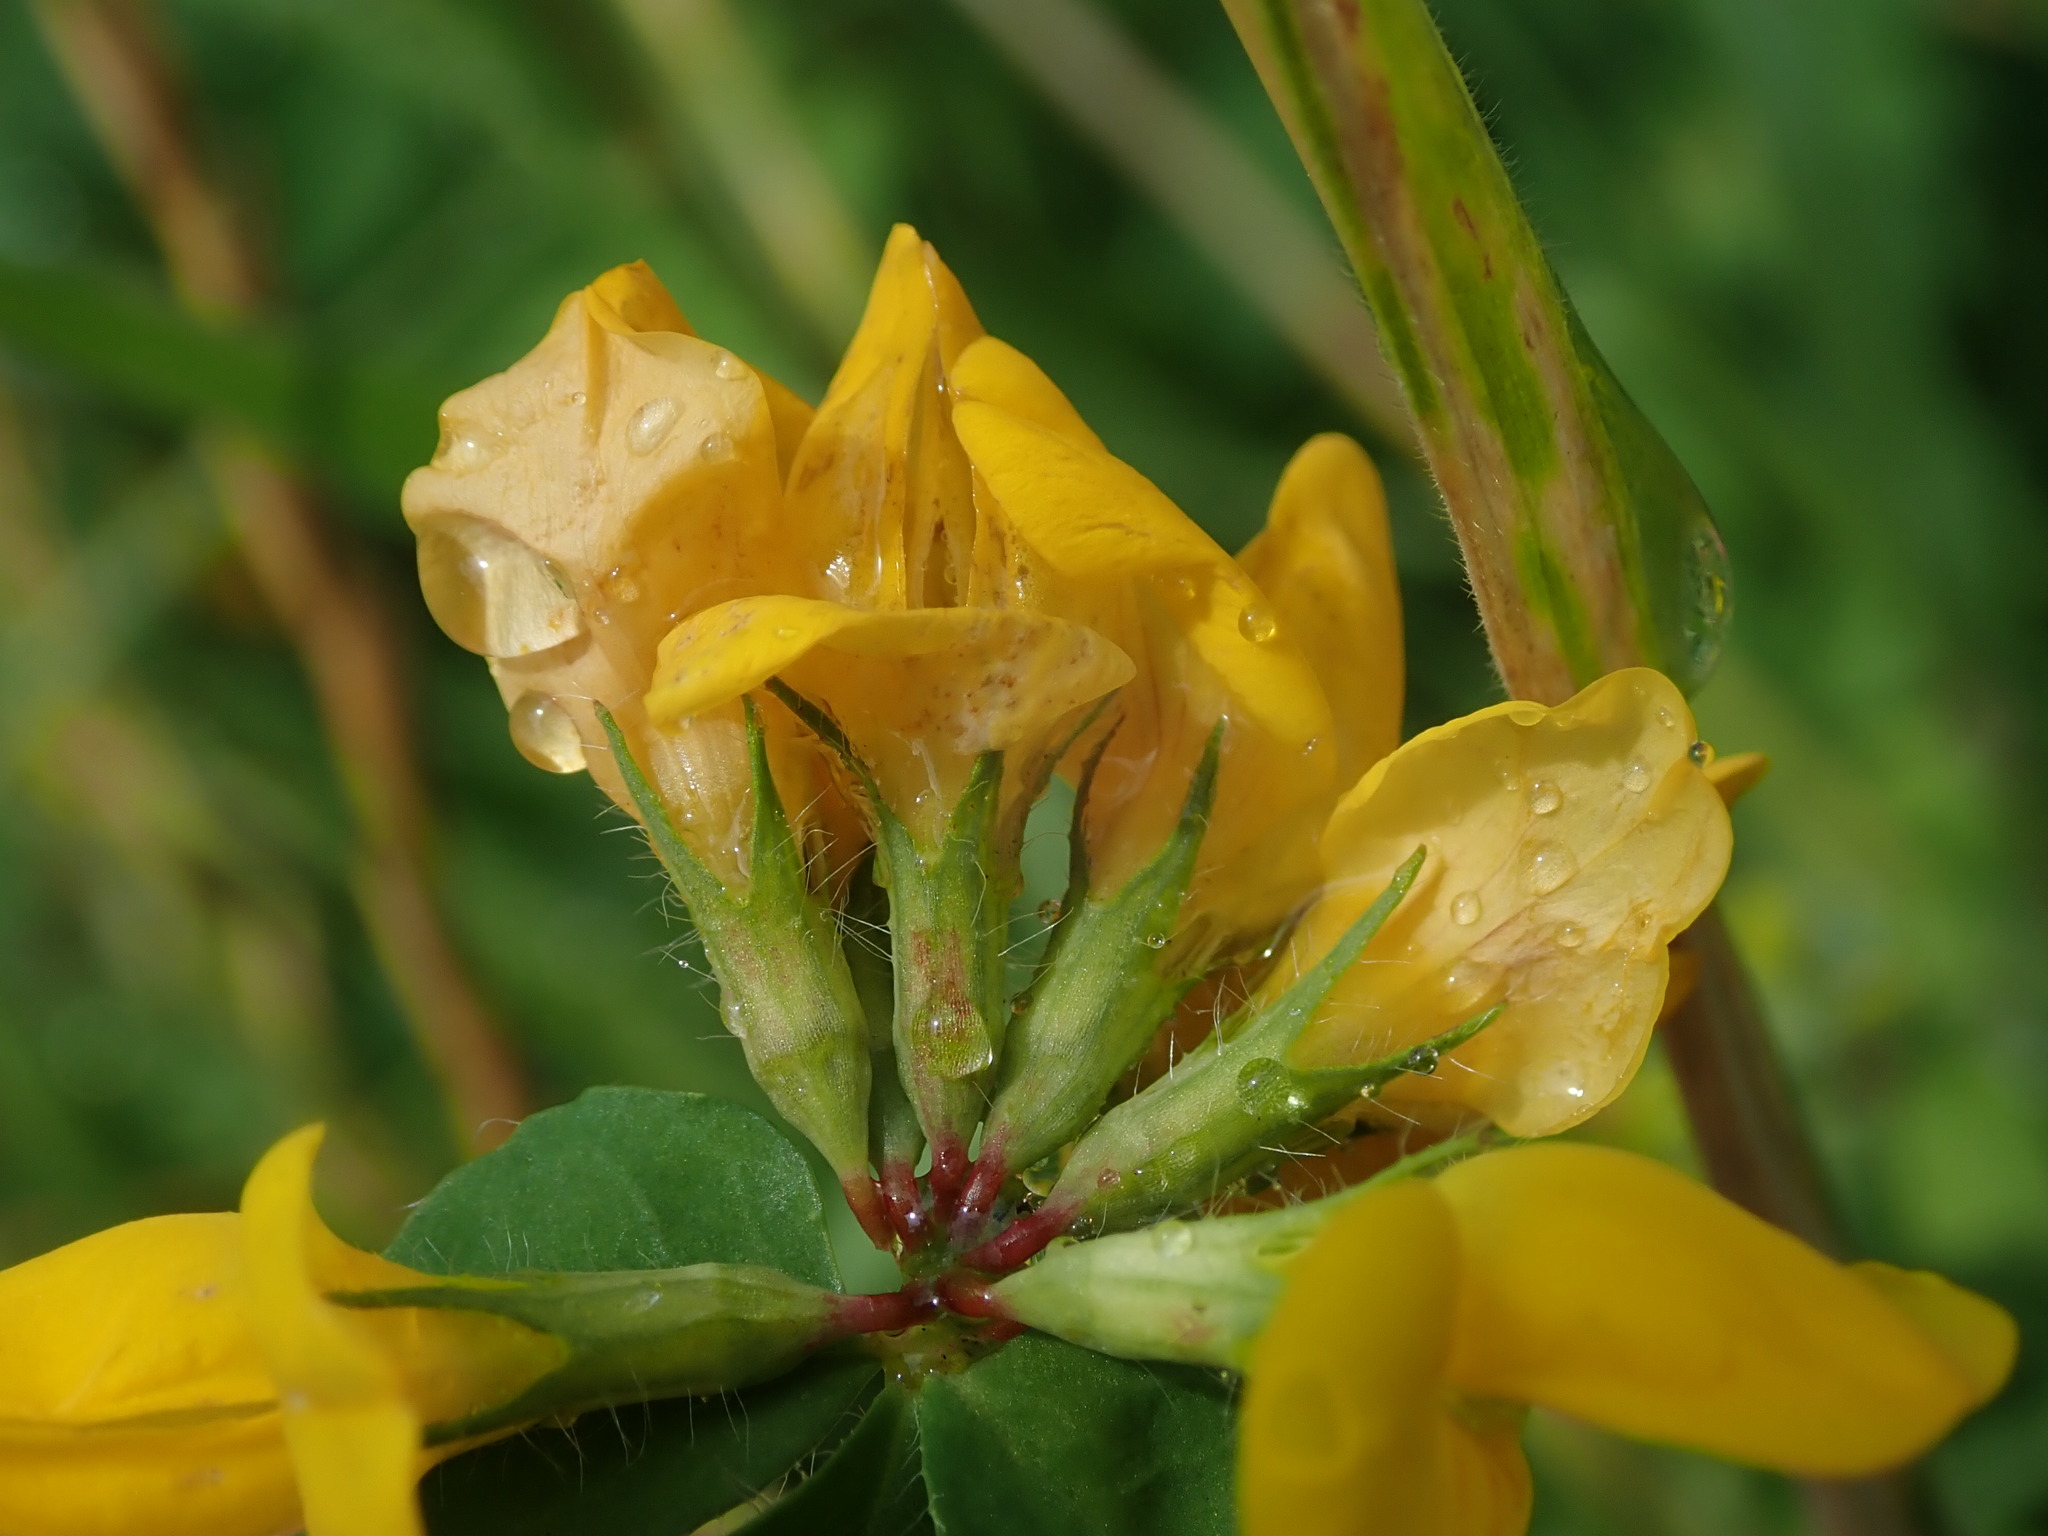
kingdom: Plantae
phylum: Tracheophyta
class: Magnoliopsida
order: Fabales
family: Fabaceae
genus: Lotus
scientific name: Lotus pedunculatus
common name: Greater birdsfoot-trefoil
